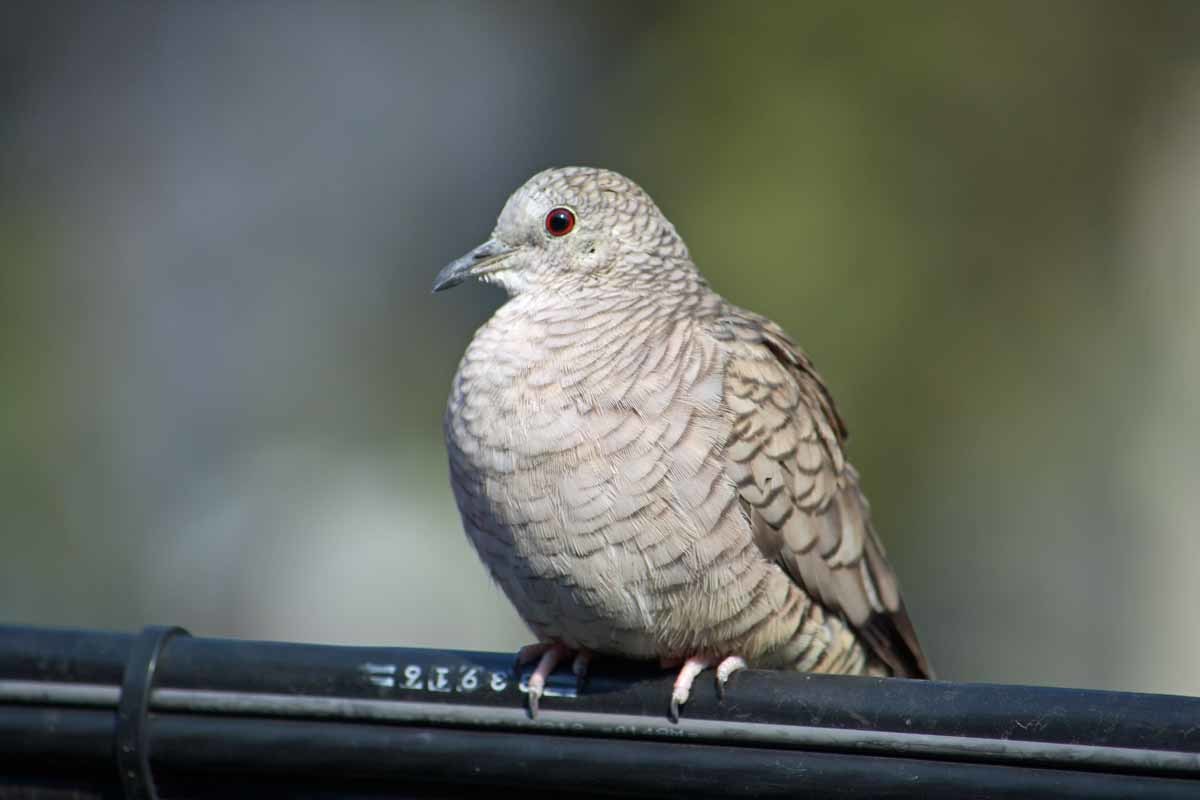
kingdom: Animalia
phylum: Chordata
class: Aves
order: Columbiformes
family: Columbidae
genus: Columbina
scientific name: Columbina inca
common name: Inca dove
